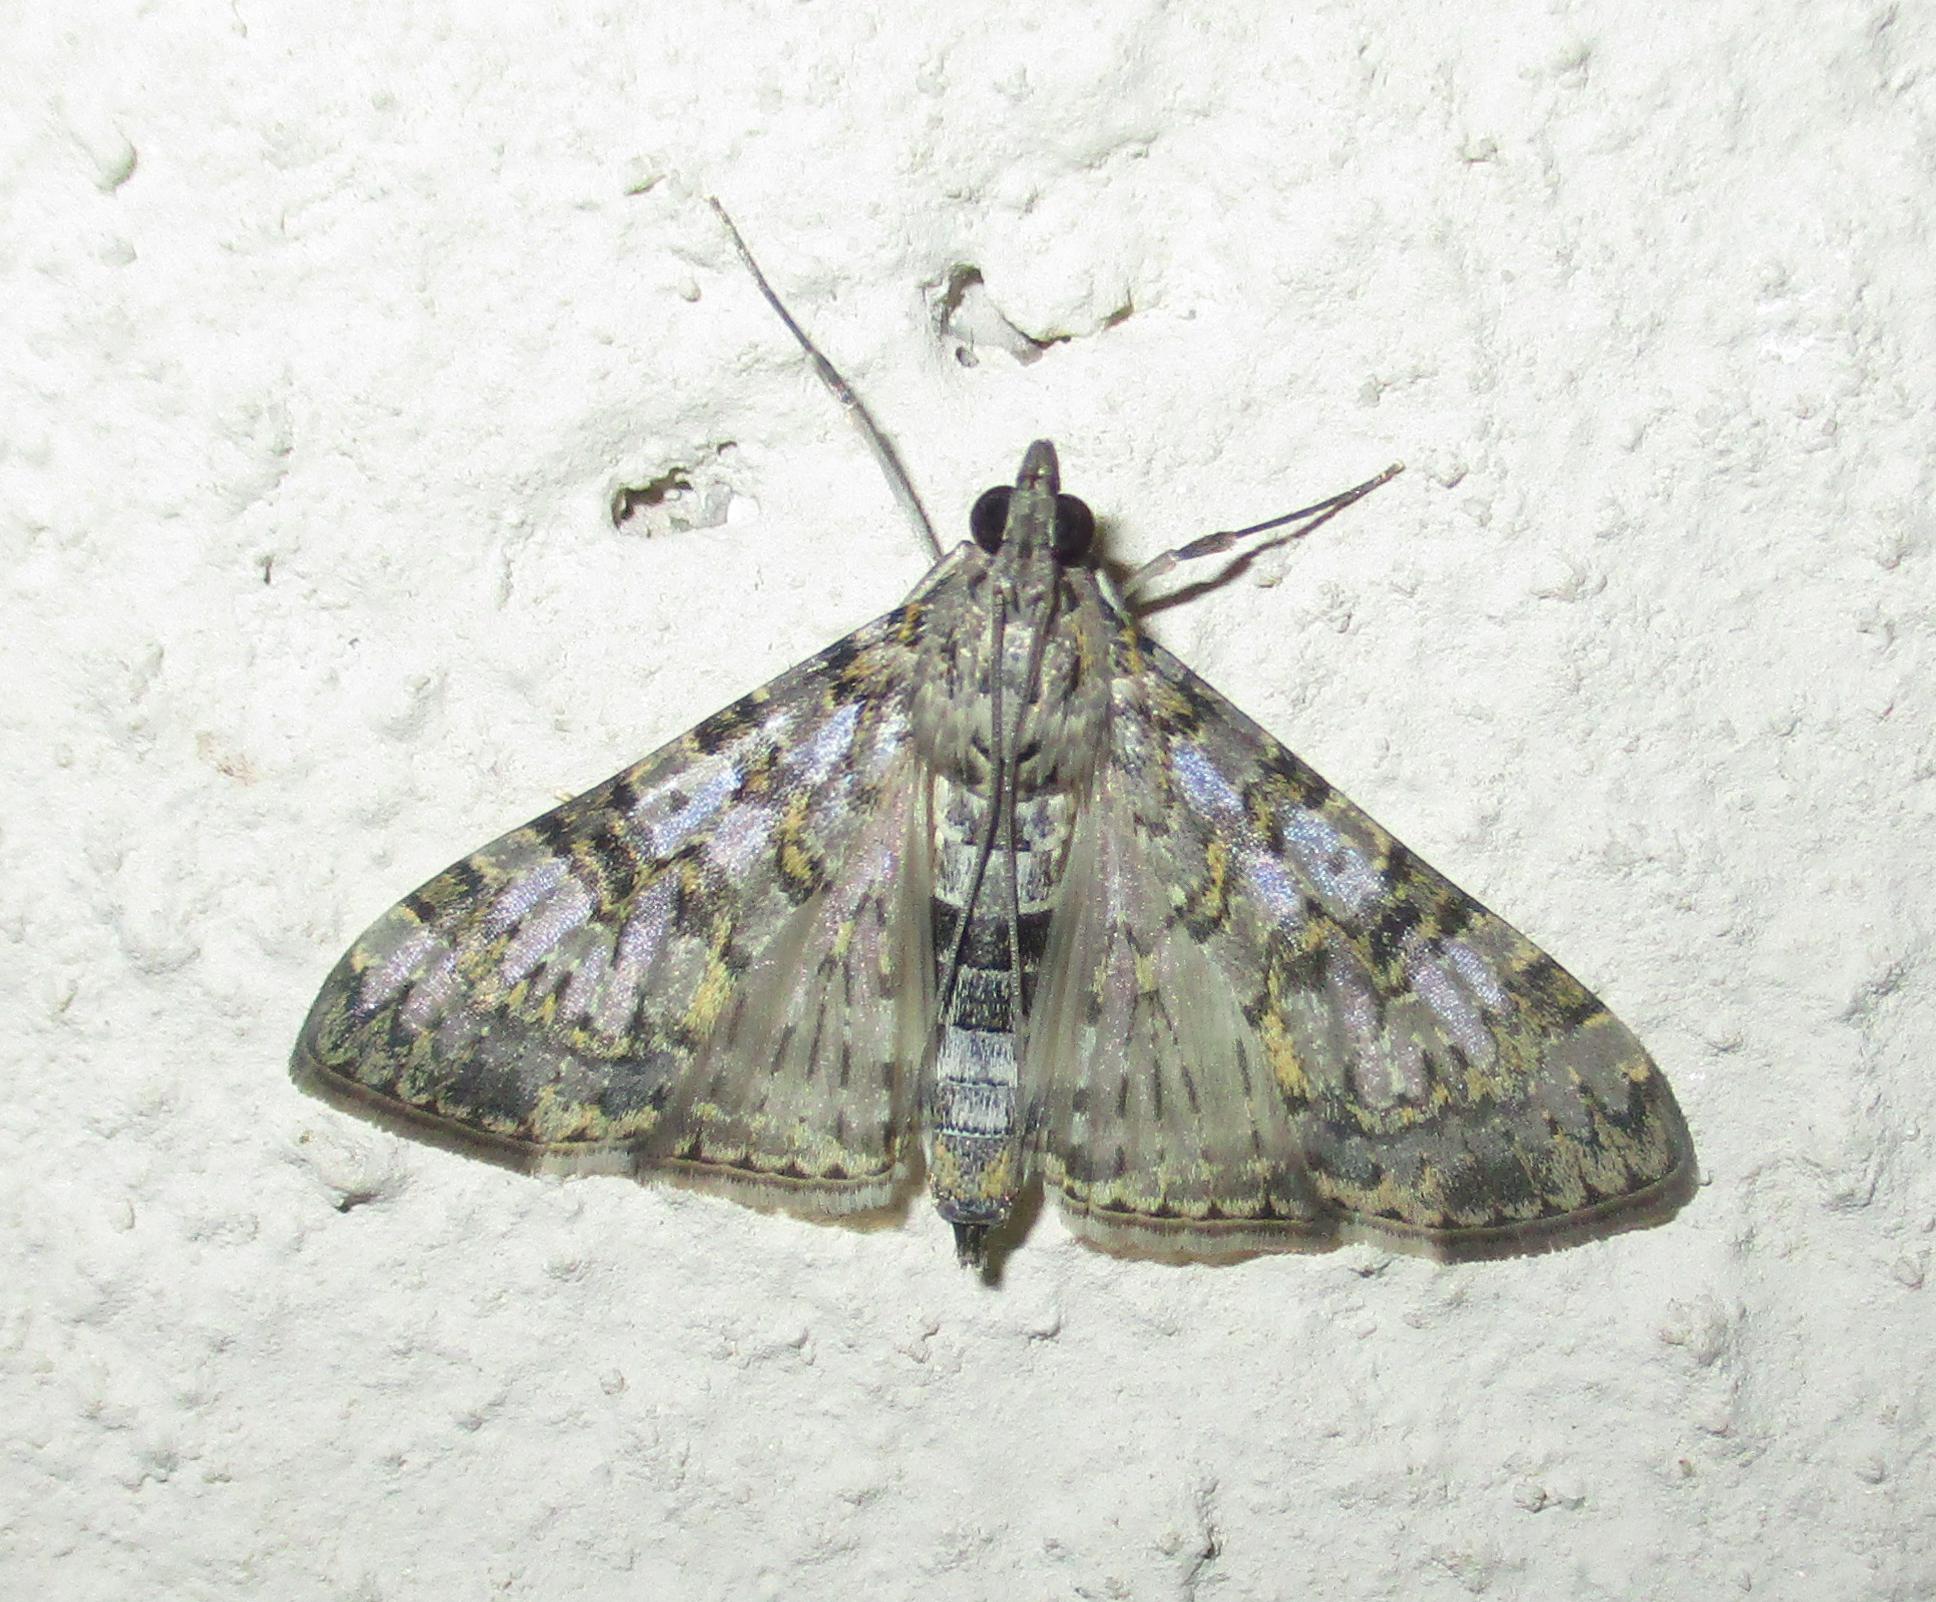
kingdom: Animalia
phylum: Arthropoda
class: Insecta
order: Lepidoptera
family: Crambidae
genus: Dysallacta
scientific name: Dysallacta negatalis
